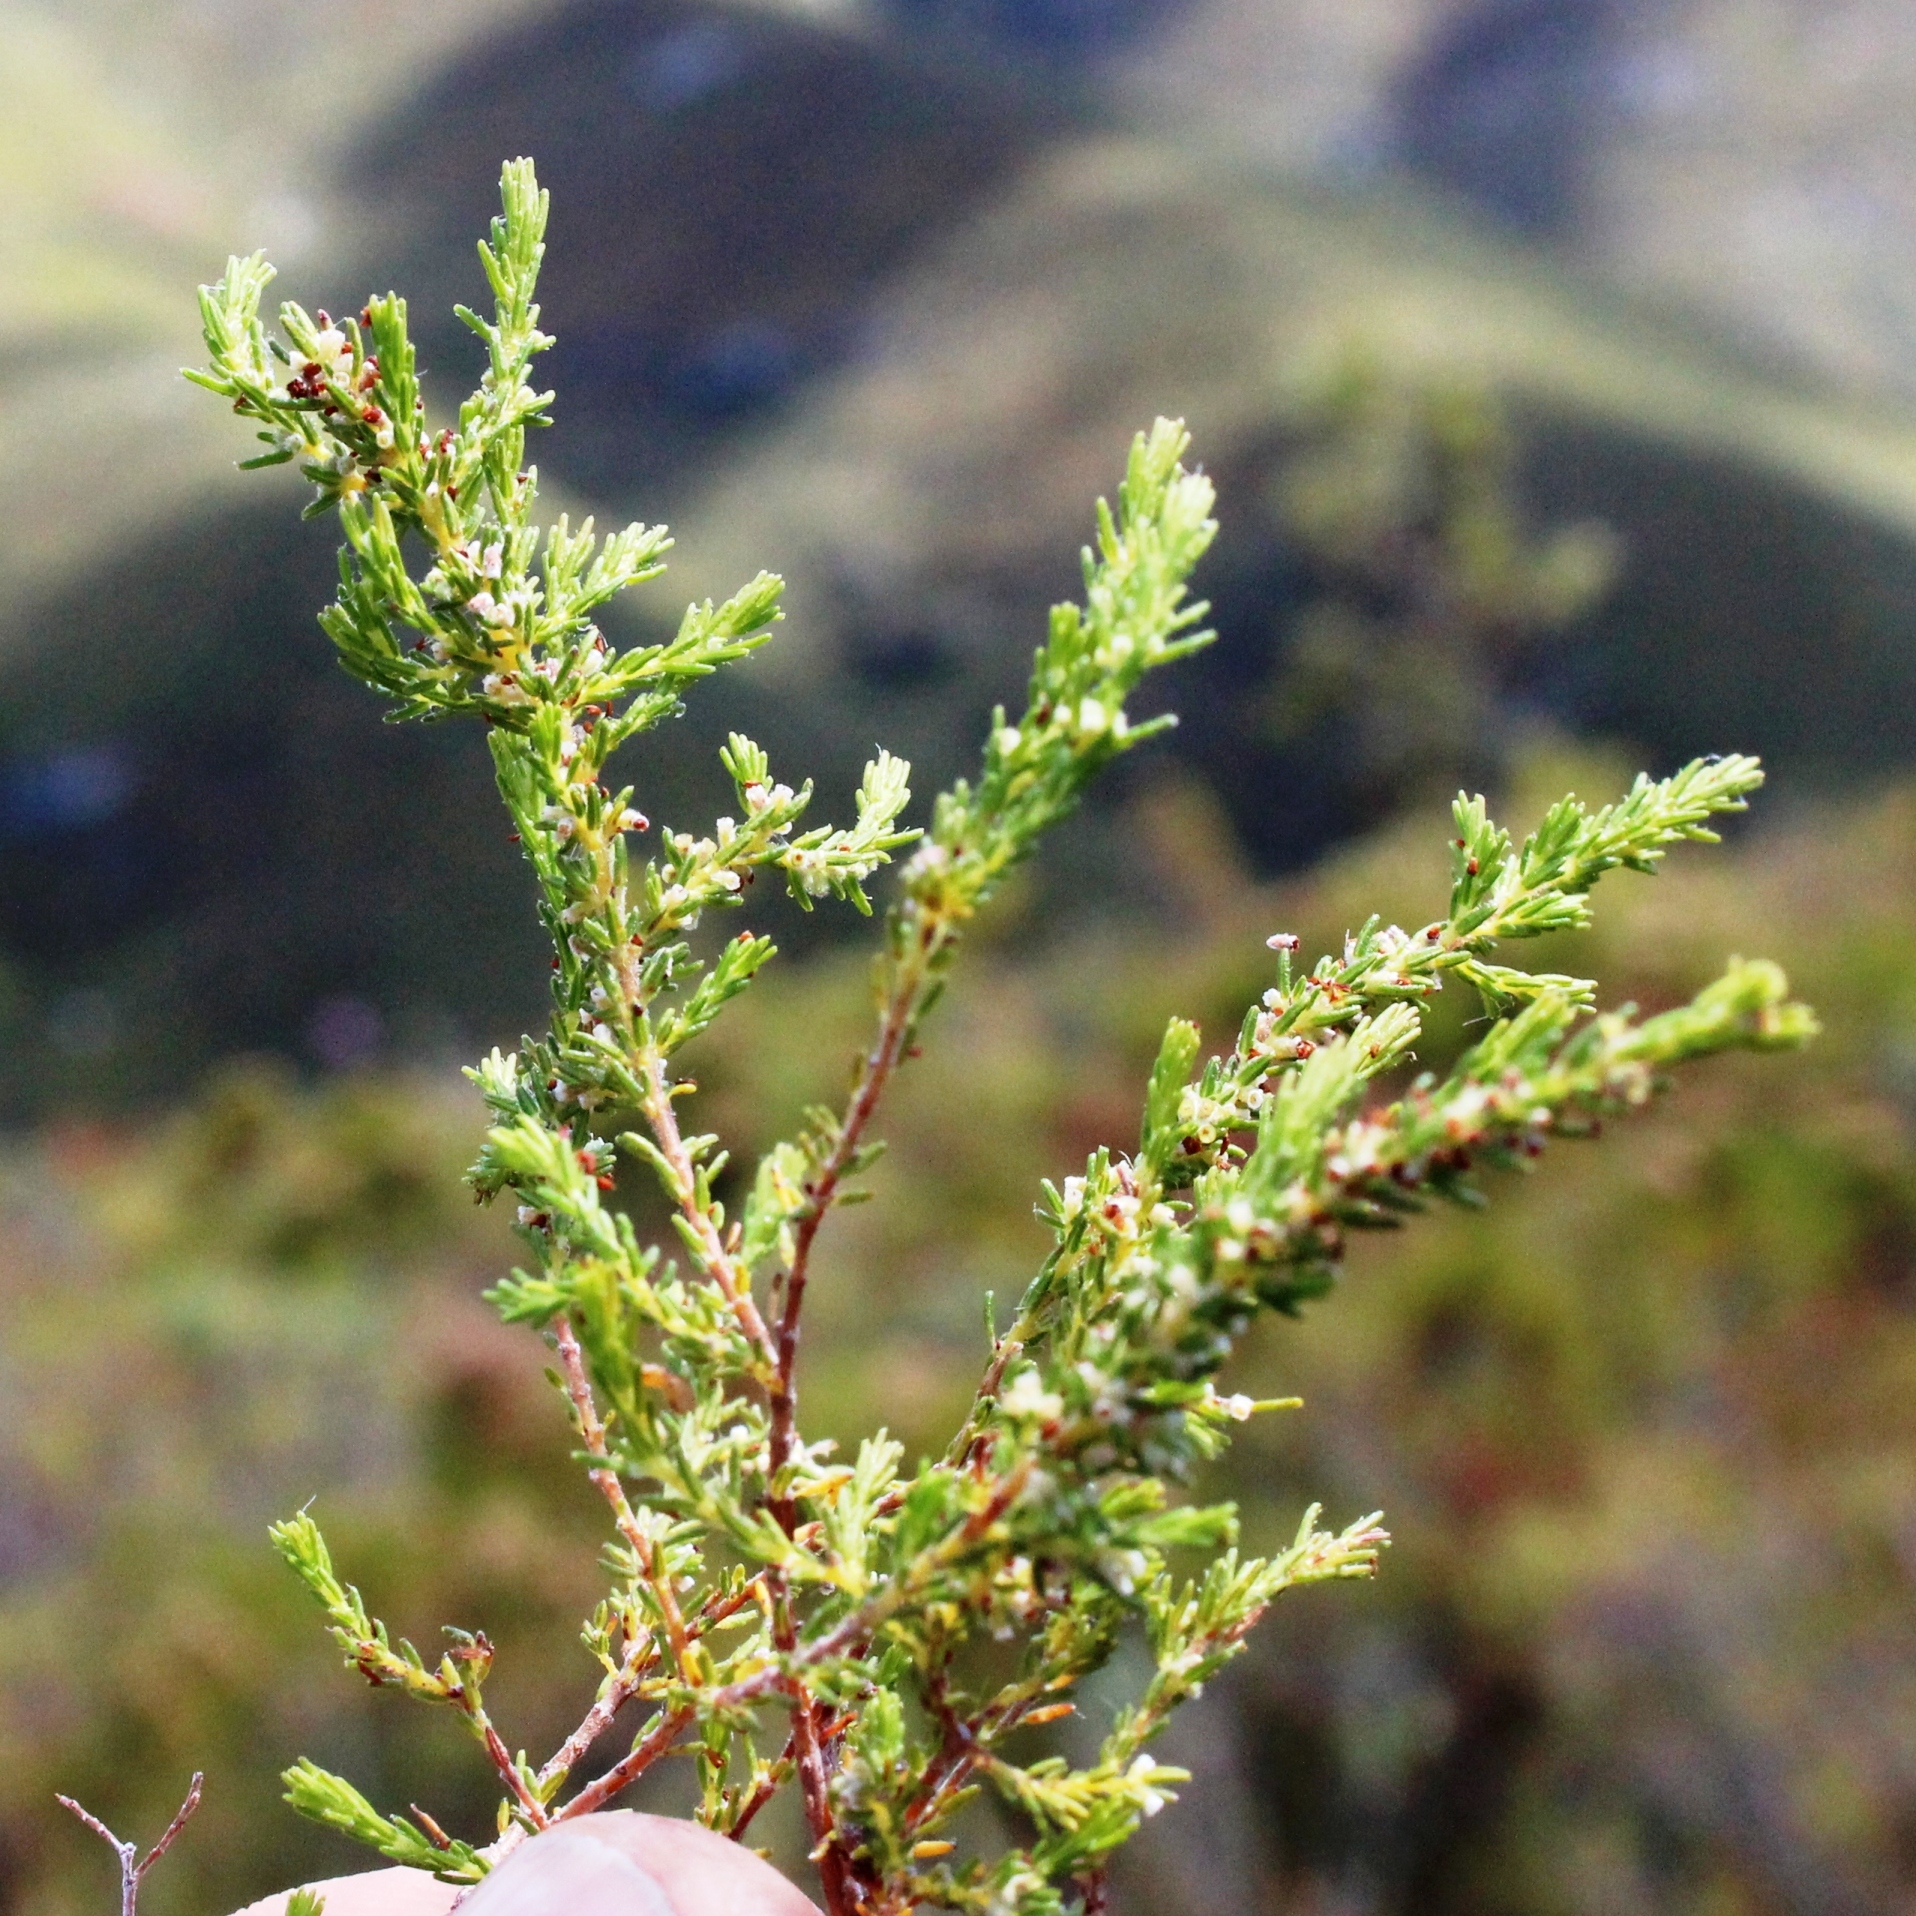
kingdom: Plantae
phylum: Tracheophyta
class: Magnoliopsida
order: Ericales
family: Ericaceae
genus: Erica
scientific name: Erica muscosa
